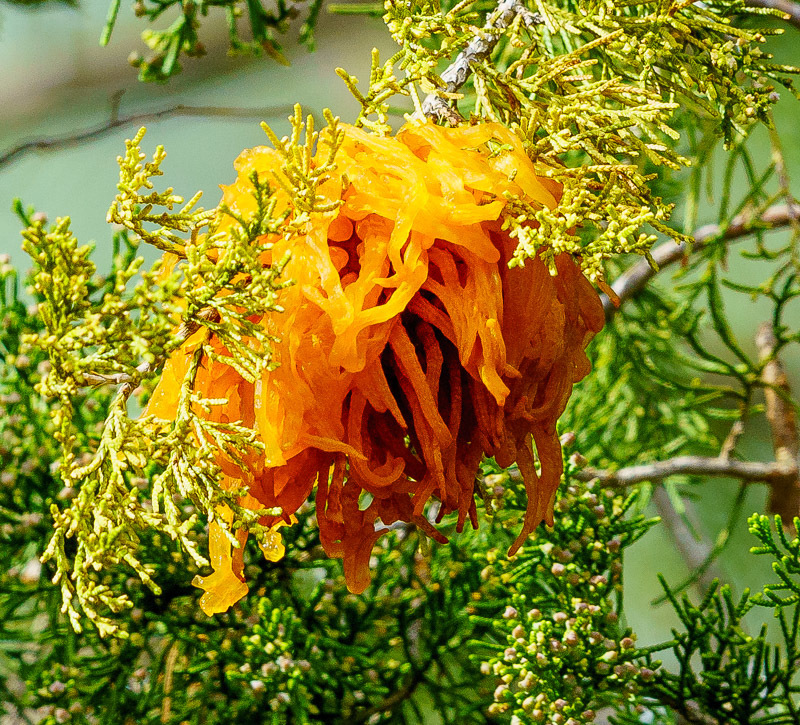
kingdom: Fungi
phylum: Basidiomycota
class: Pucciniomycetes
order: Pucciniales
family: Gymnosporangiaceae
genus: Gymnosporangium
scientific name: Gymnosporangium juniperi-virginianae
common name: Juniper-apple rust
